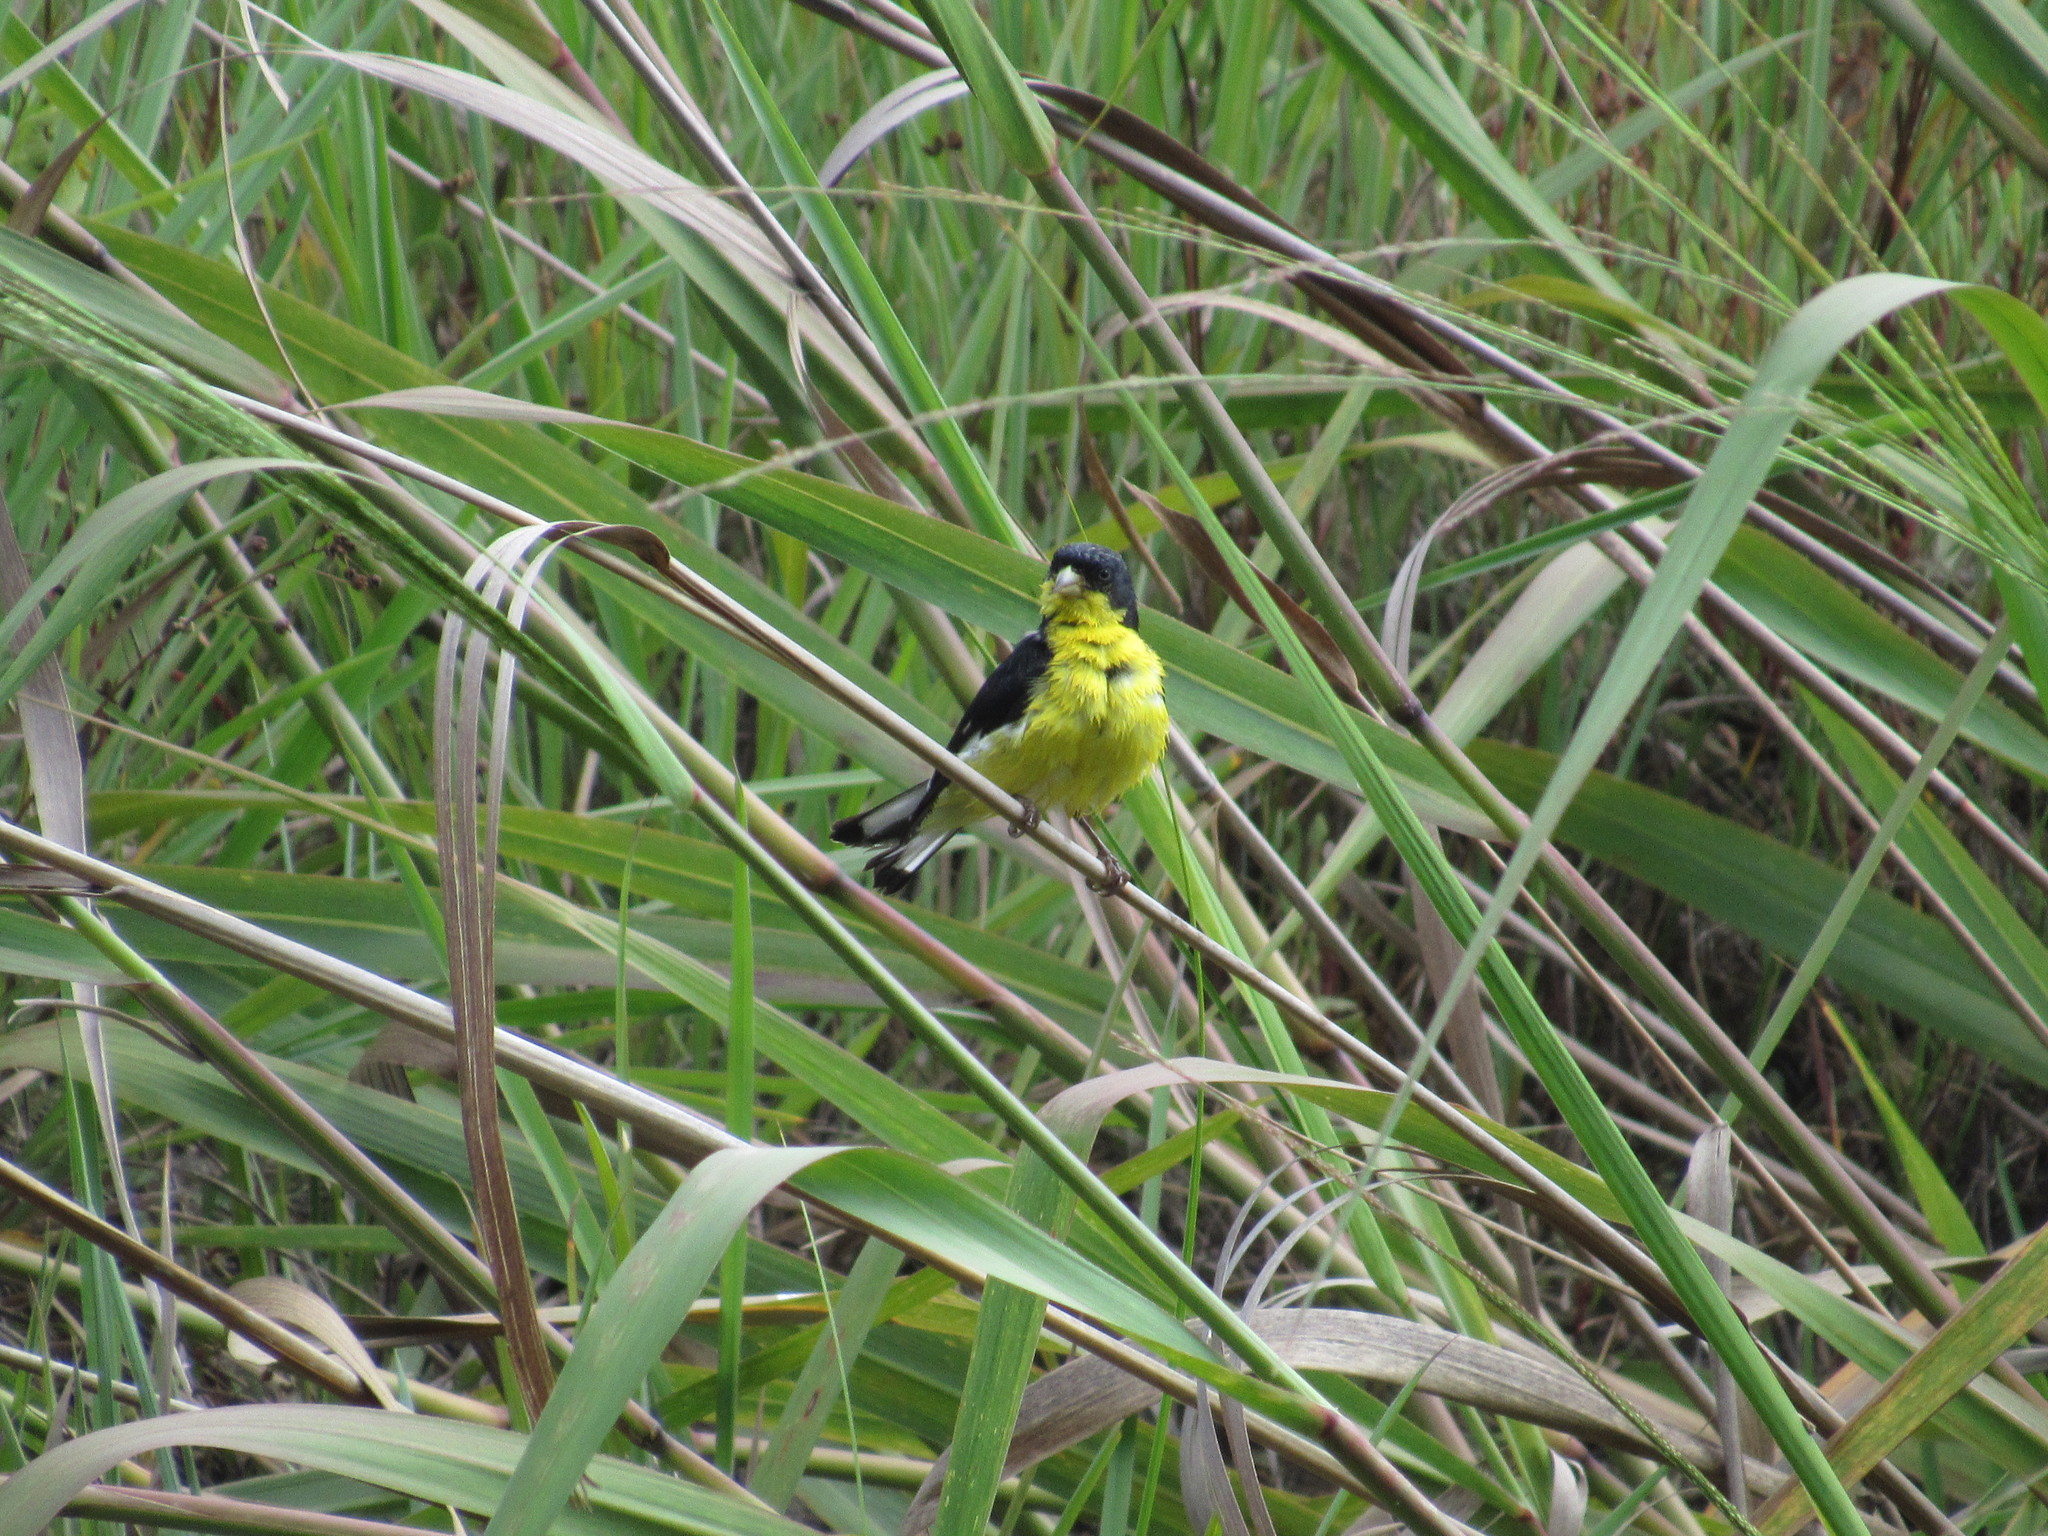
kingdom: Animalia
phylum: Chordata
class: Aves
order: Passeriformes
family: Fringillidae
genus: Spinus
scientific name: Spinus psaltria
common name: Lesser goldfinch
